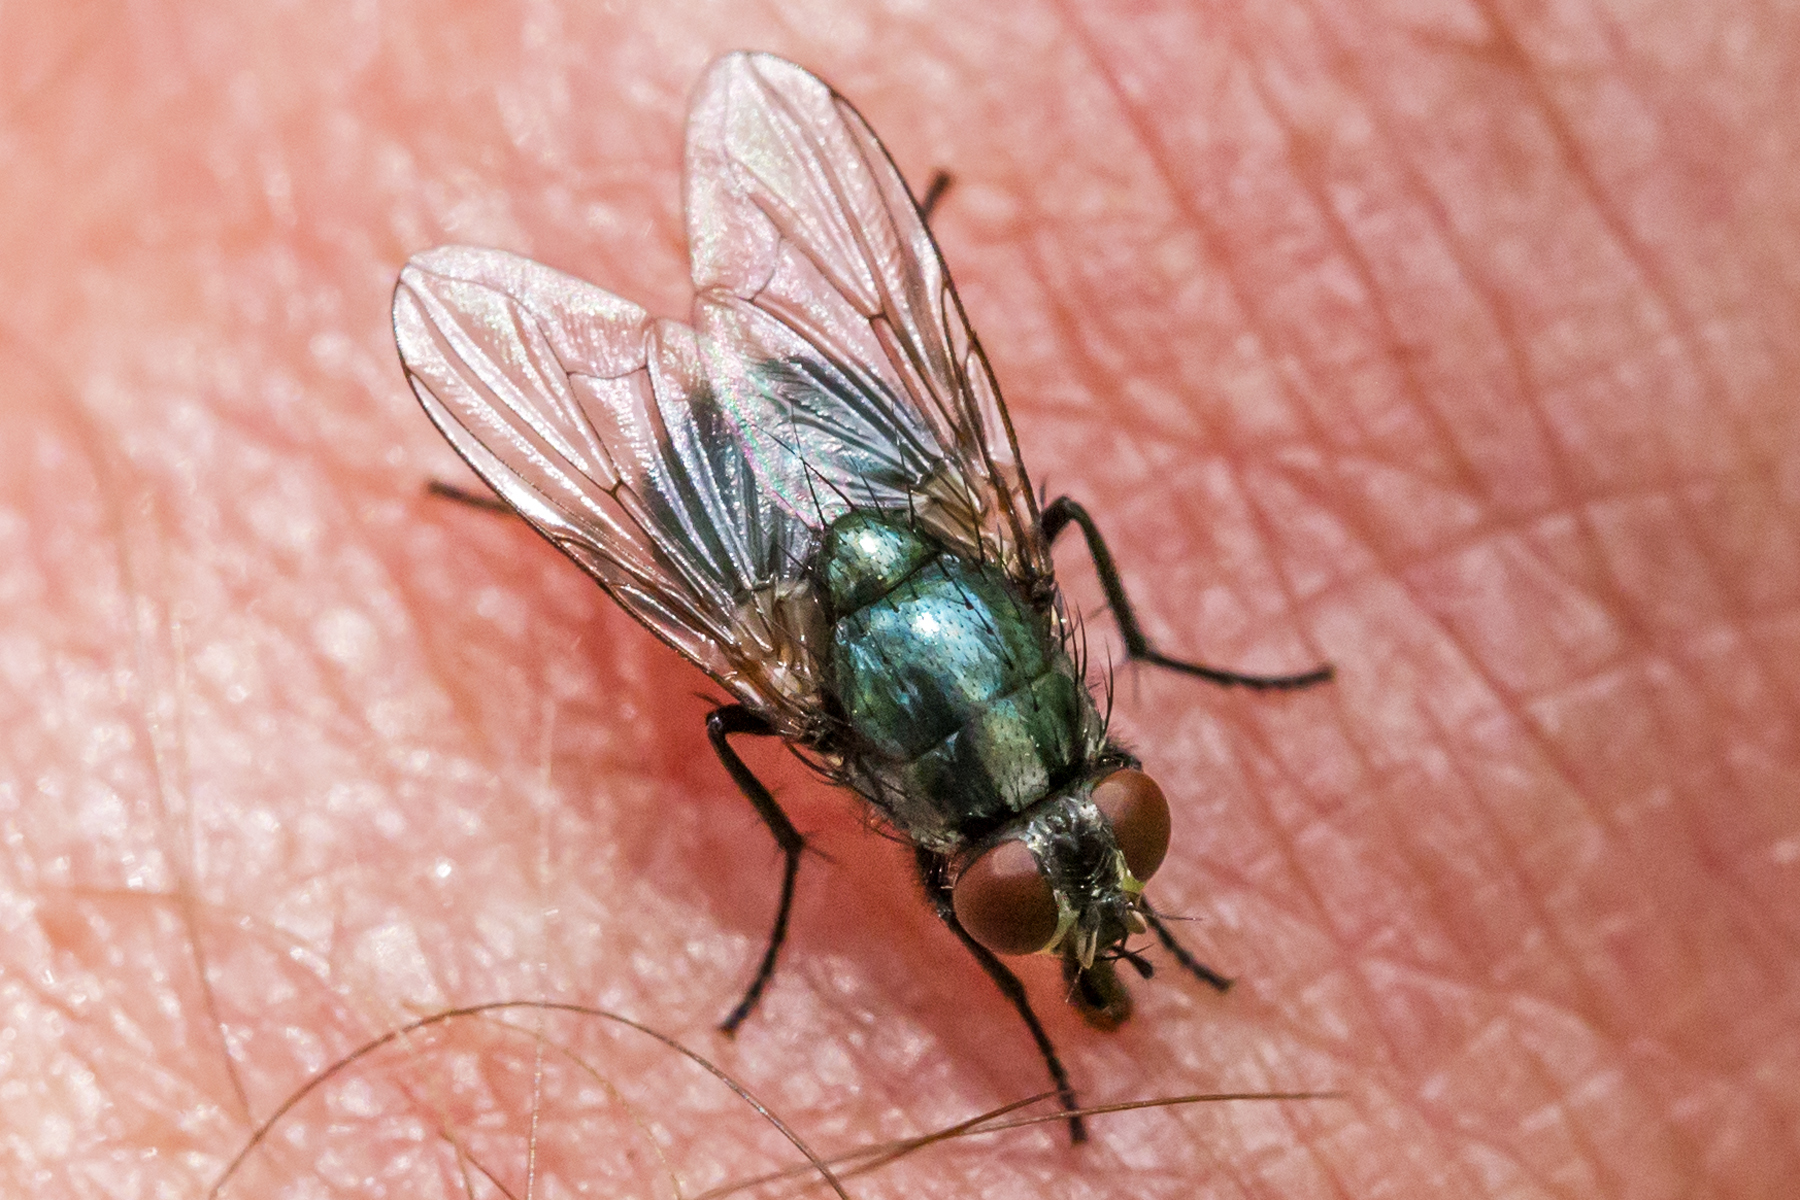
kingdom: Animalia
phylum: Arthropoda
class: Insecta
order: Diptera
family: Muscidae
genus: Eudasyphora
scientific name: Eudasyphora cyanicolor
